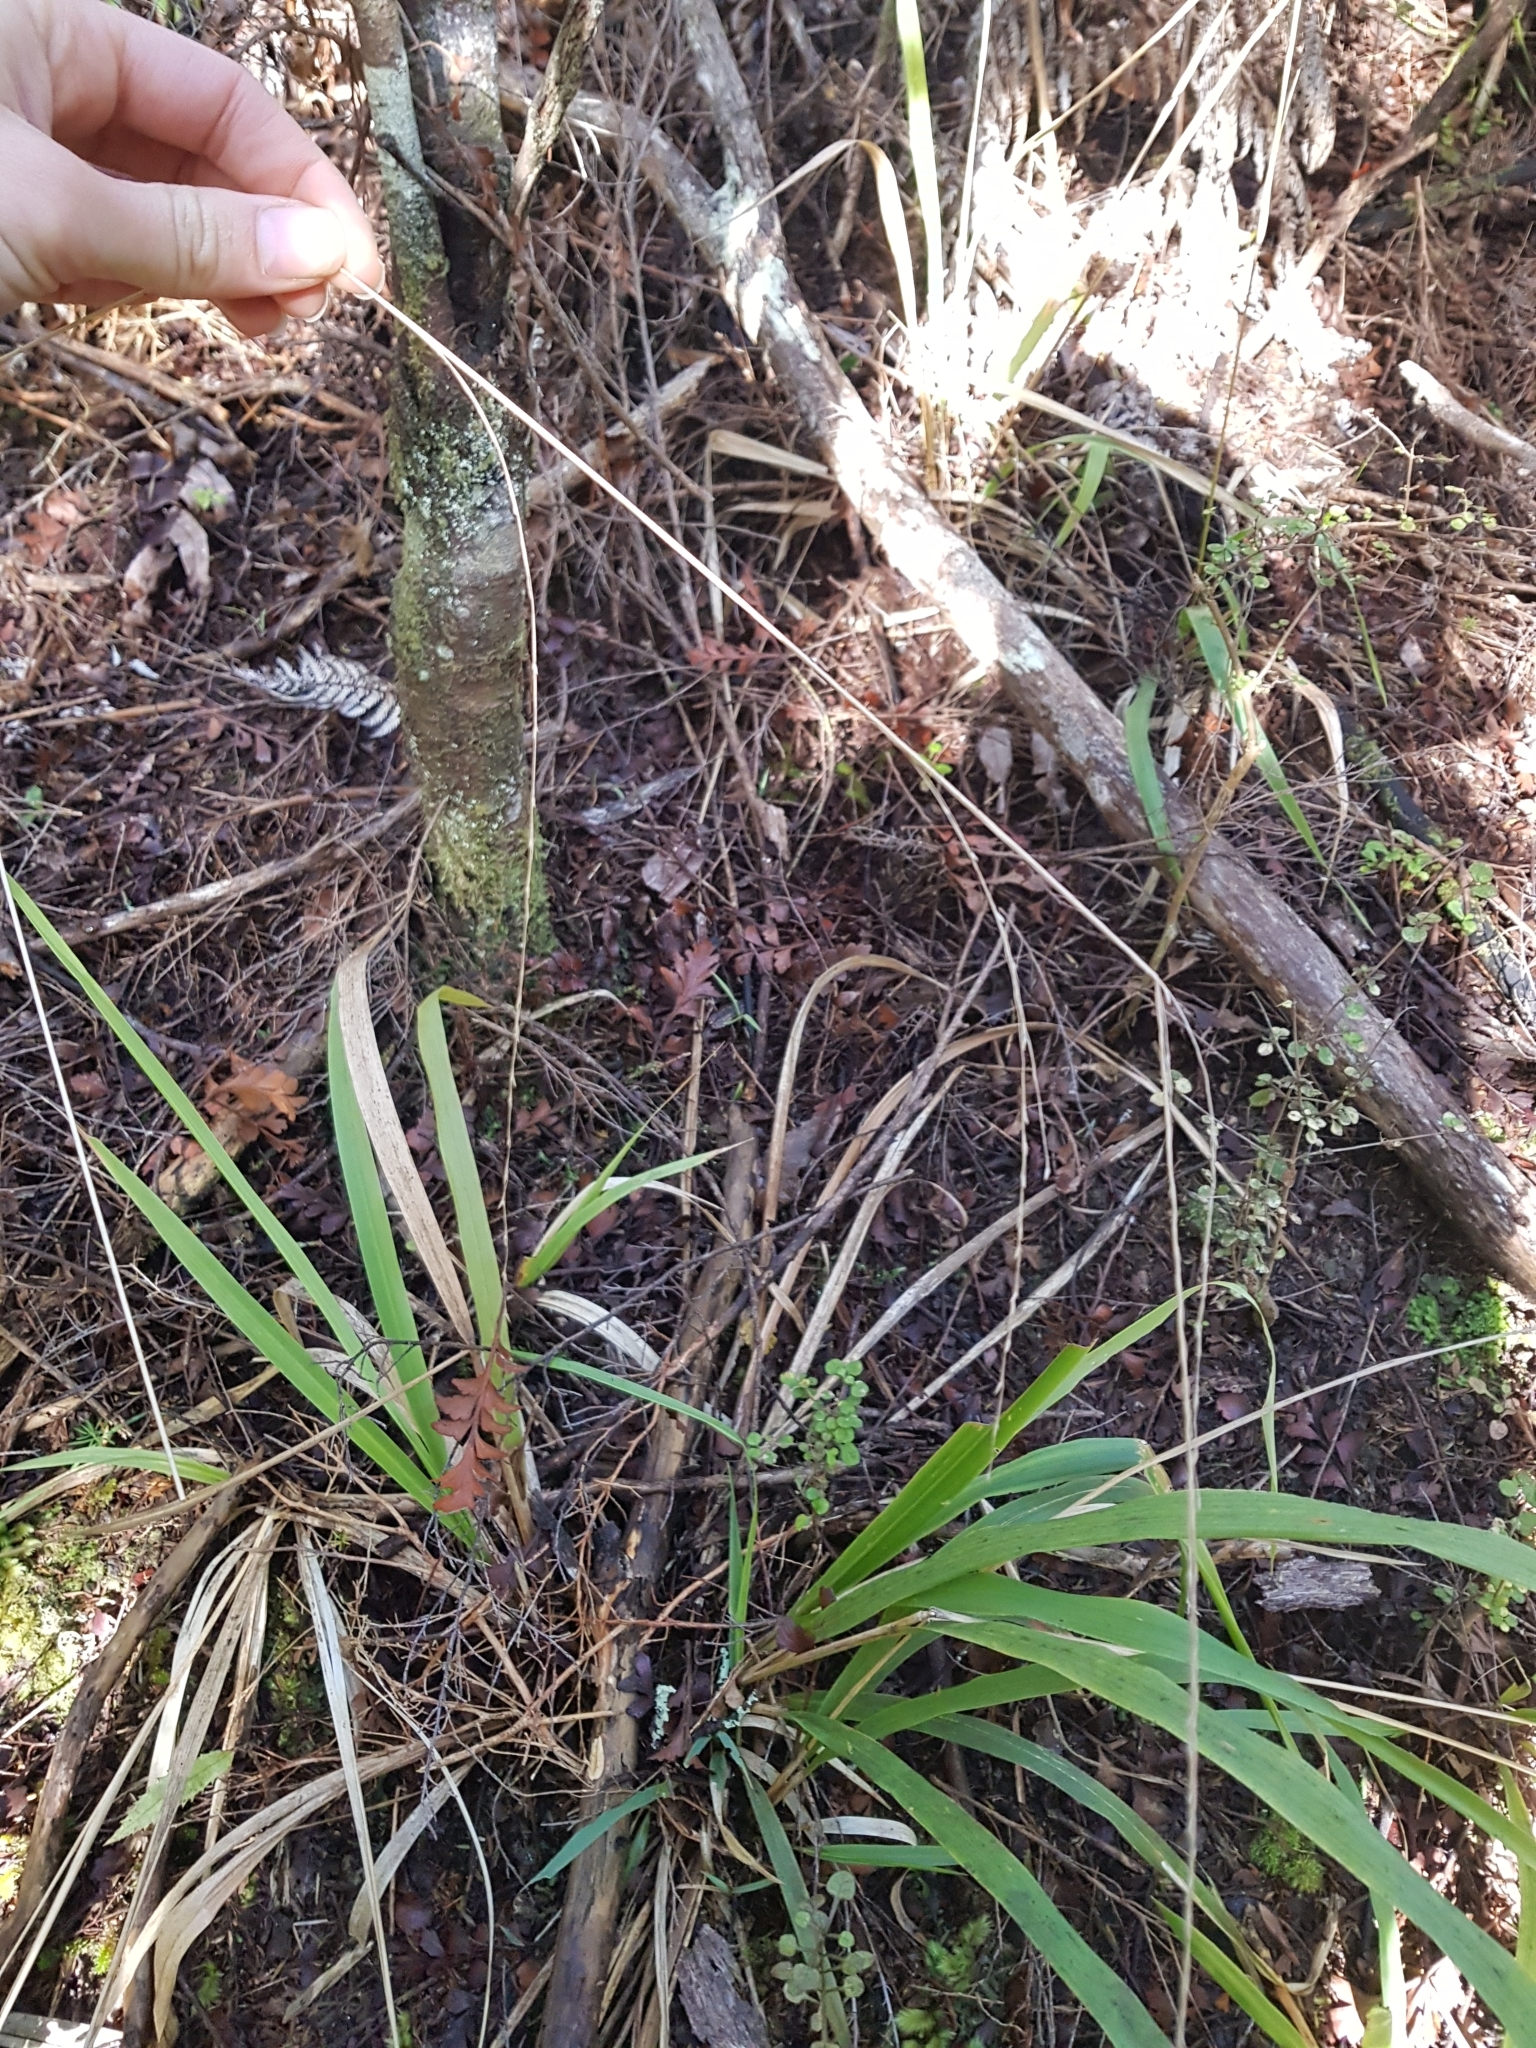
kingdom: Plantae
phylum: Tracheophyta
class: Liliopsida
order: Poales
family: Poaceae
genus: Ehrharta
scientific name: Ehrharta diplax
